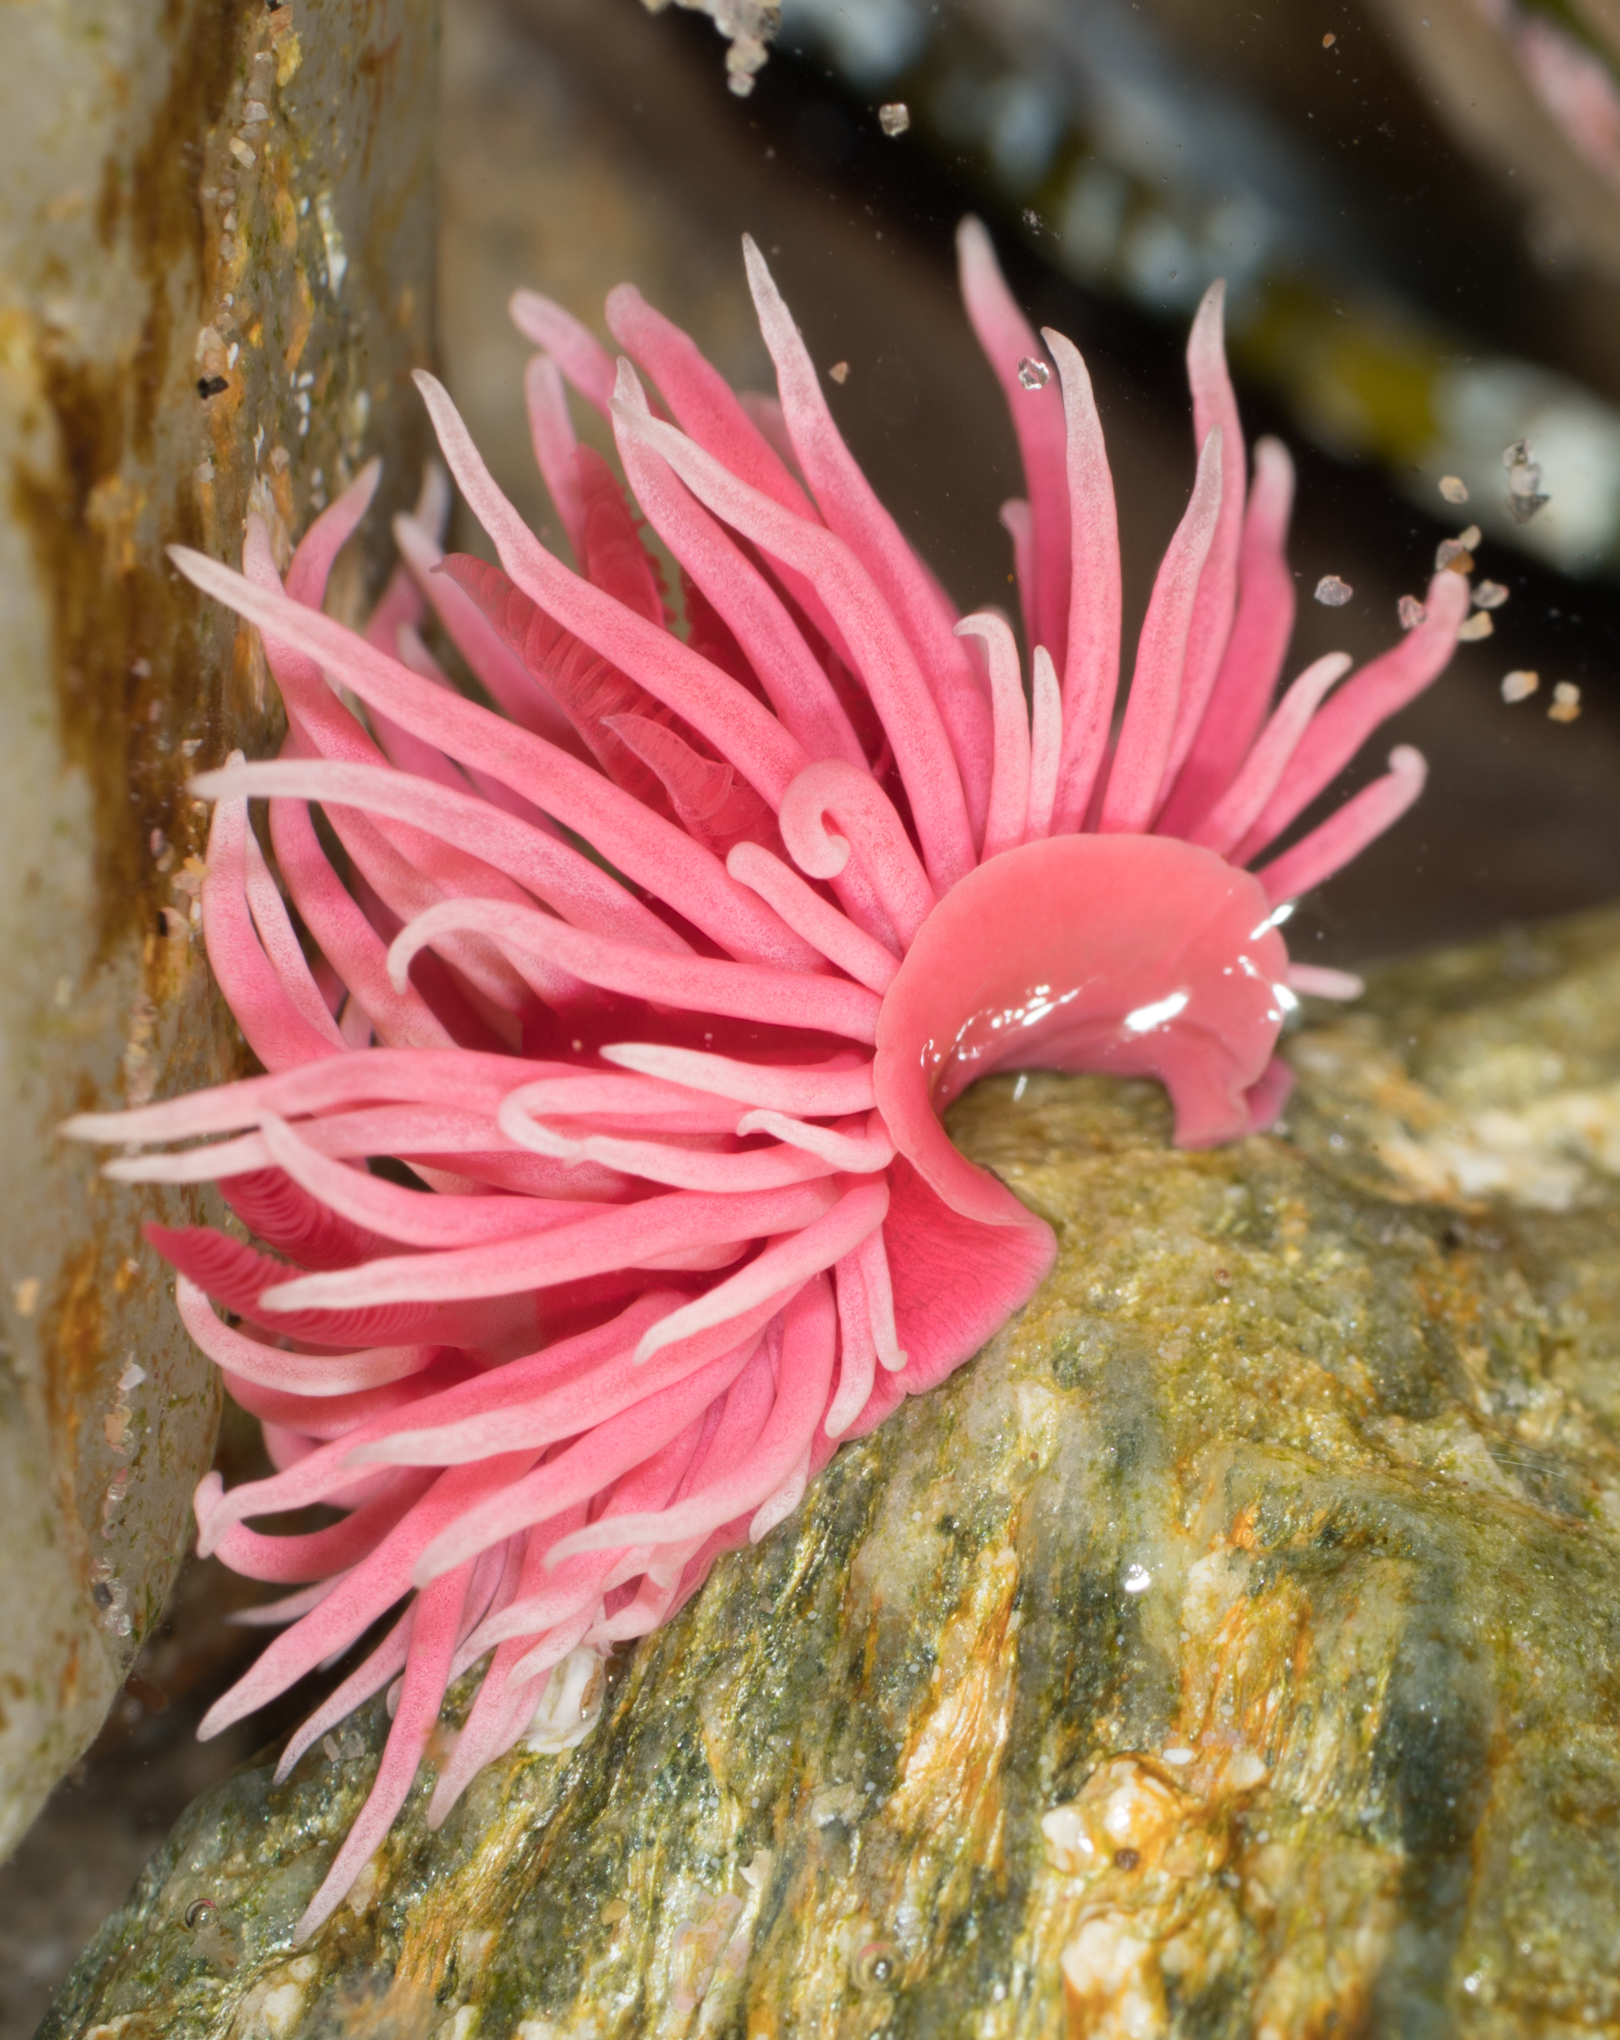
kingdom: Animalia
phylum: Mollusca
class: Gastropoda
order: Nudibranchia
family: Goniodorididae
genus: Okenia
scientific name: Okenia
